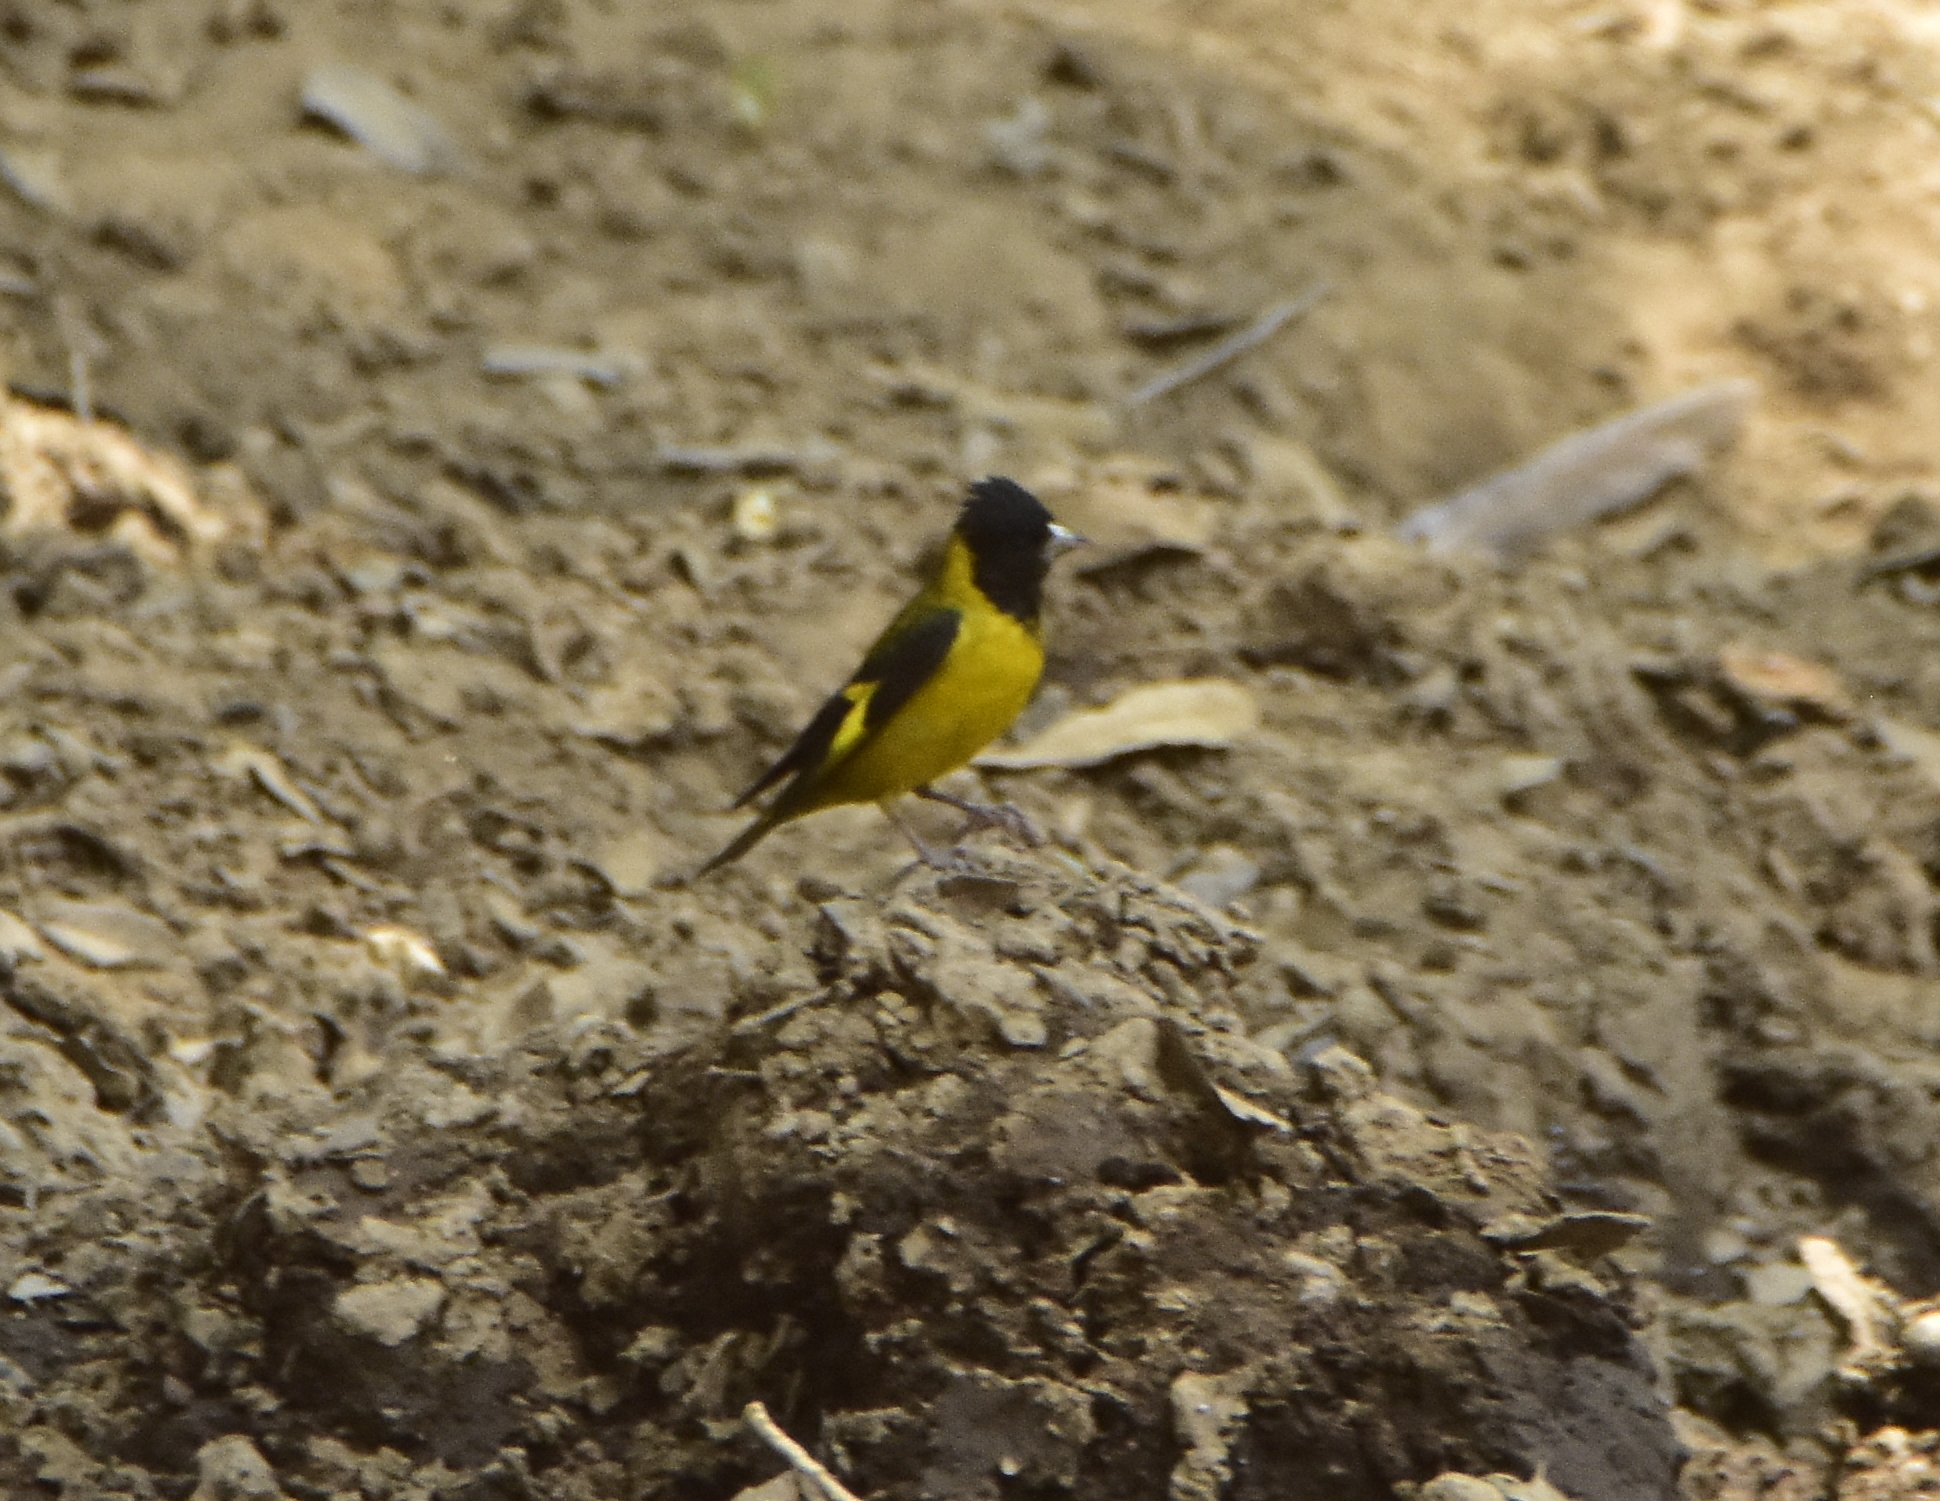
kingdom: Animalia
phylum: Chordata
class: Aves
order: Passeriformes
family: Fringillidae
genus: Spinus
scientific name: Spinus notatus
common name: Black-headed siskin
